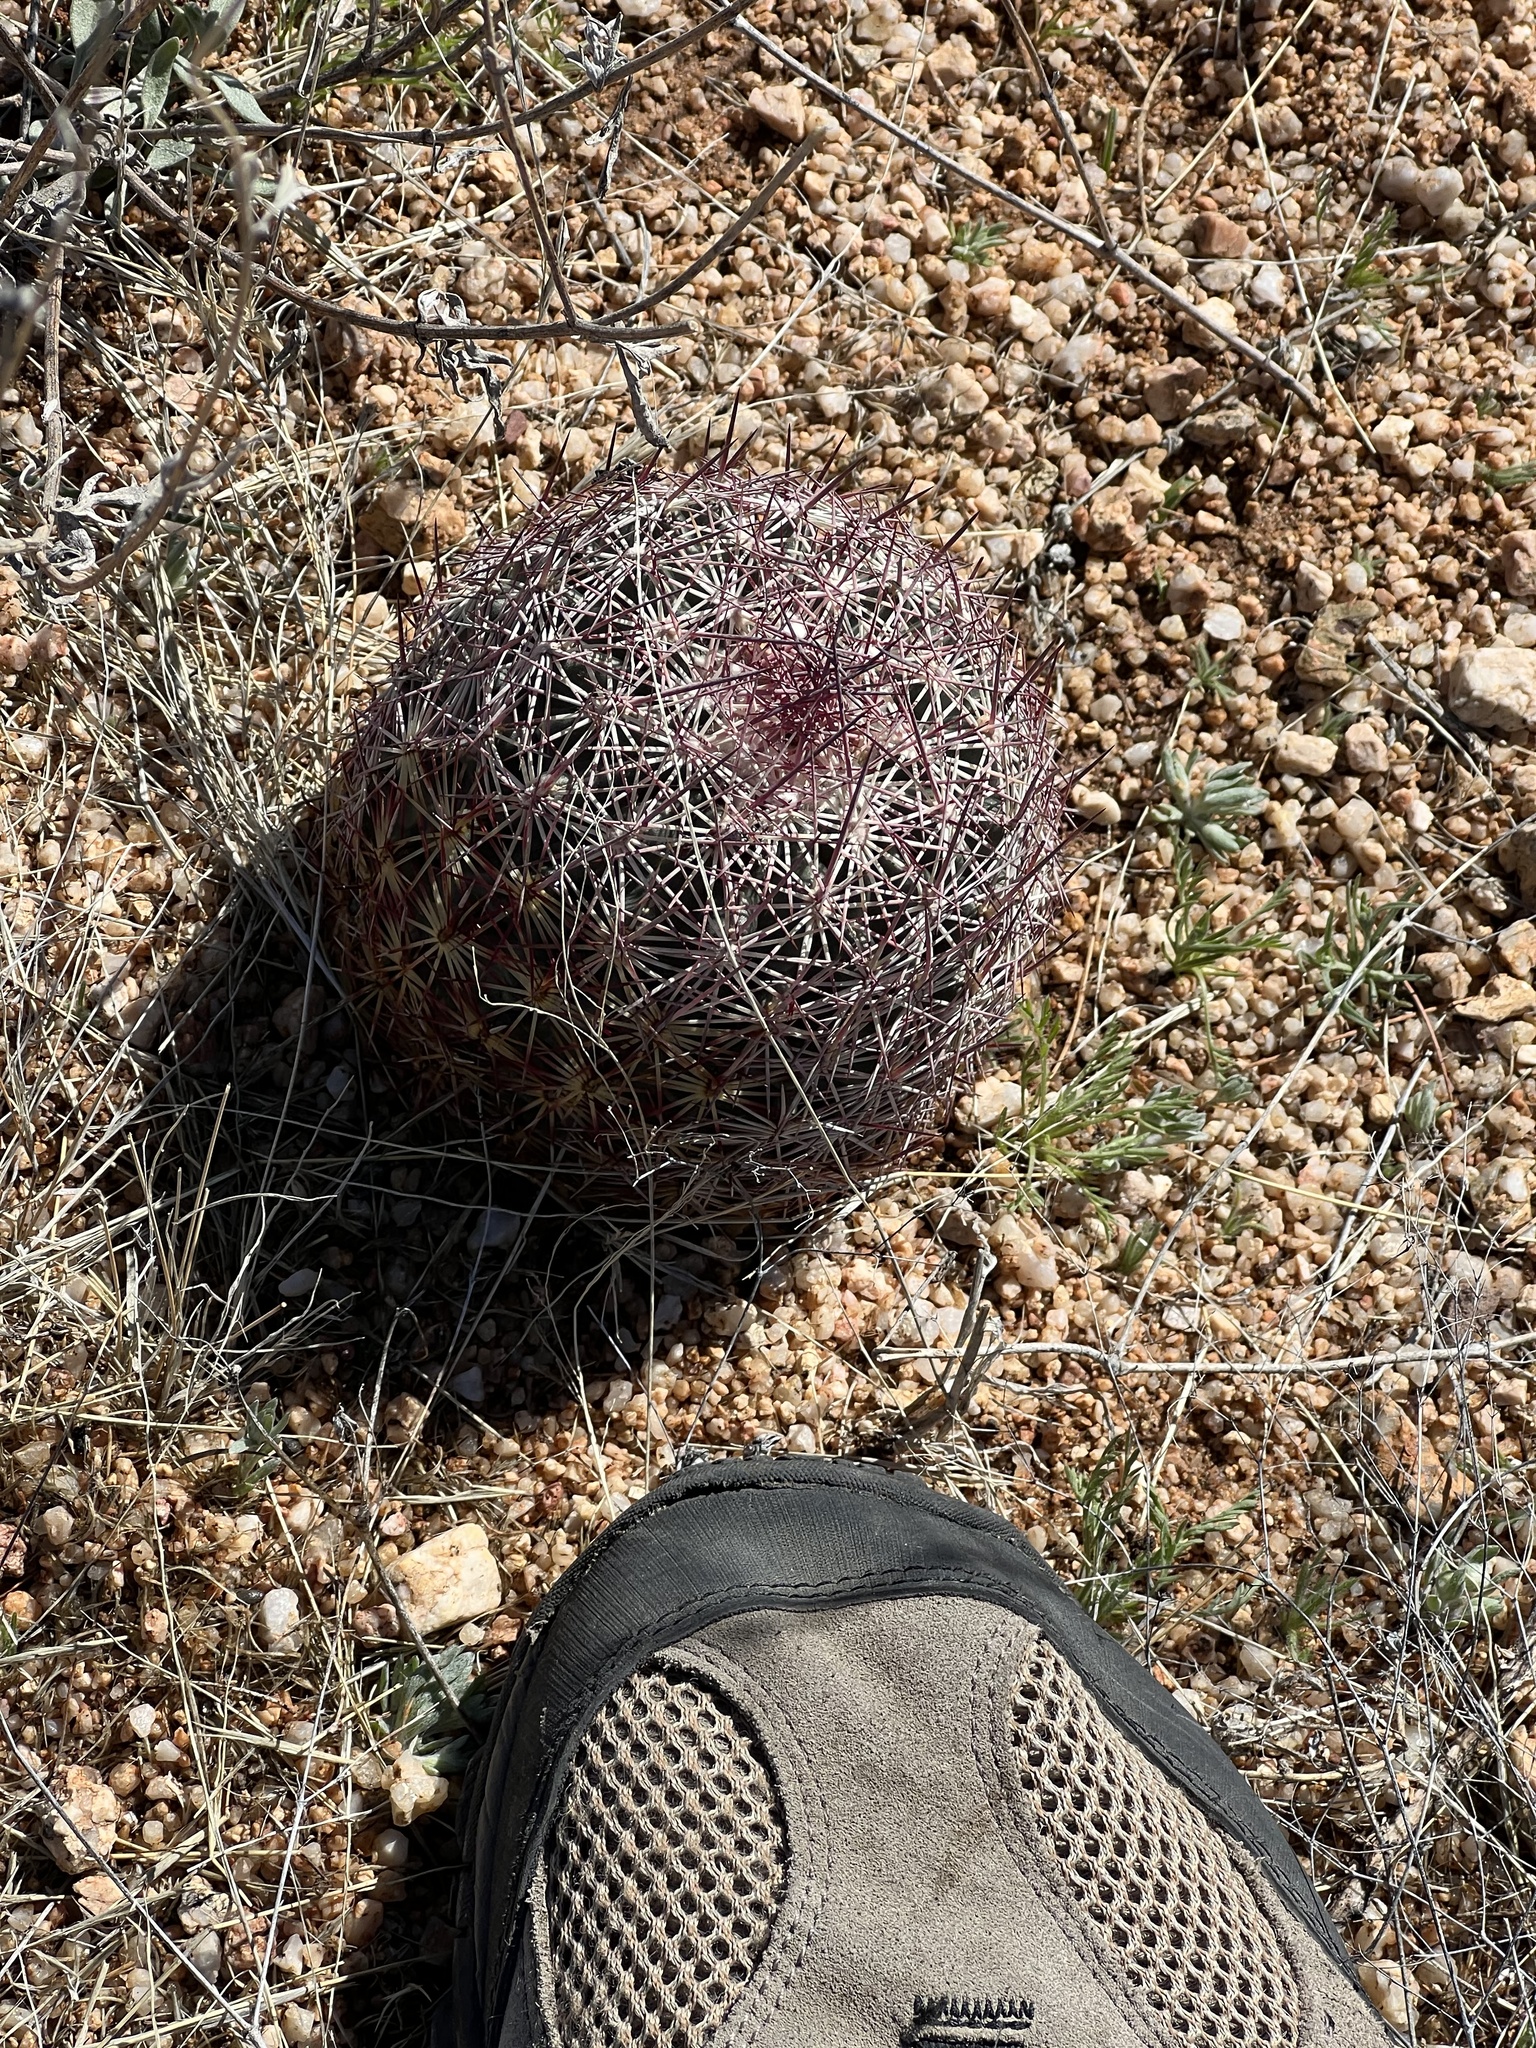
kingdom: Plantae
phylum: Tracheophyta
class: Magnoliopsida
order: Caryophyllales
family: Cactaceae
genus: Sclerocactus
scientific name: Sclerocactus johnsonii
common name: Eight-spine fishhook cactus
